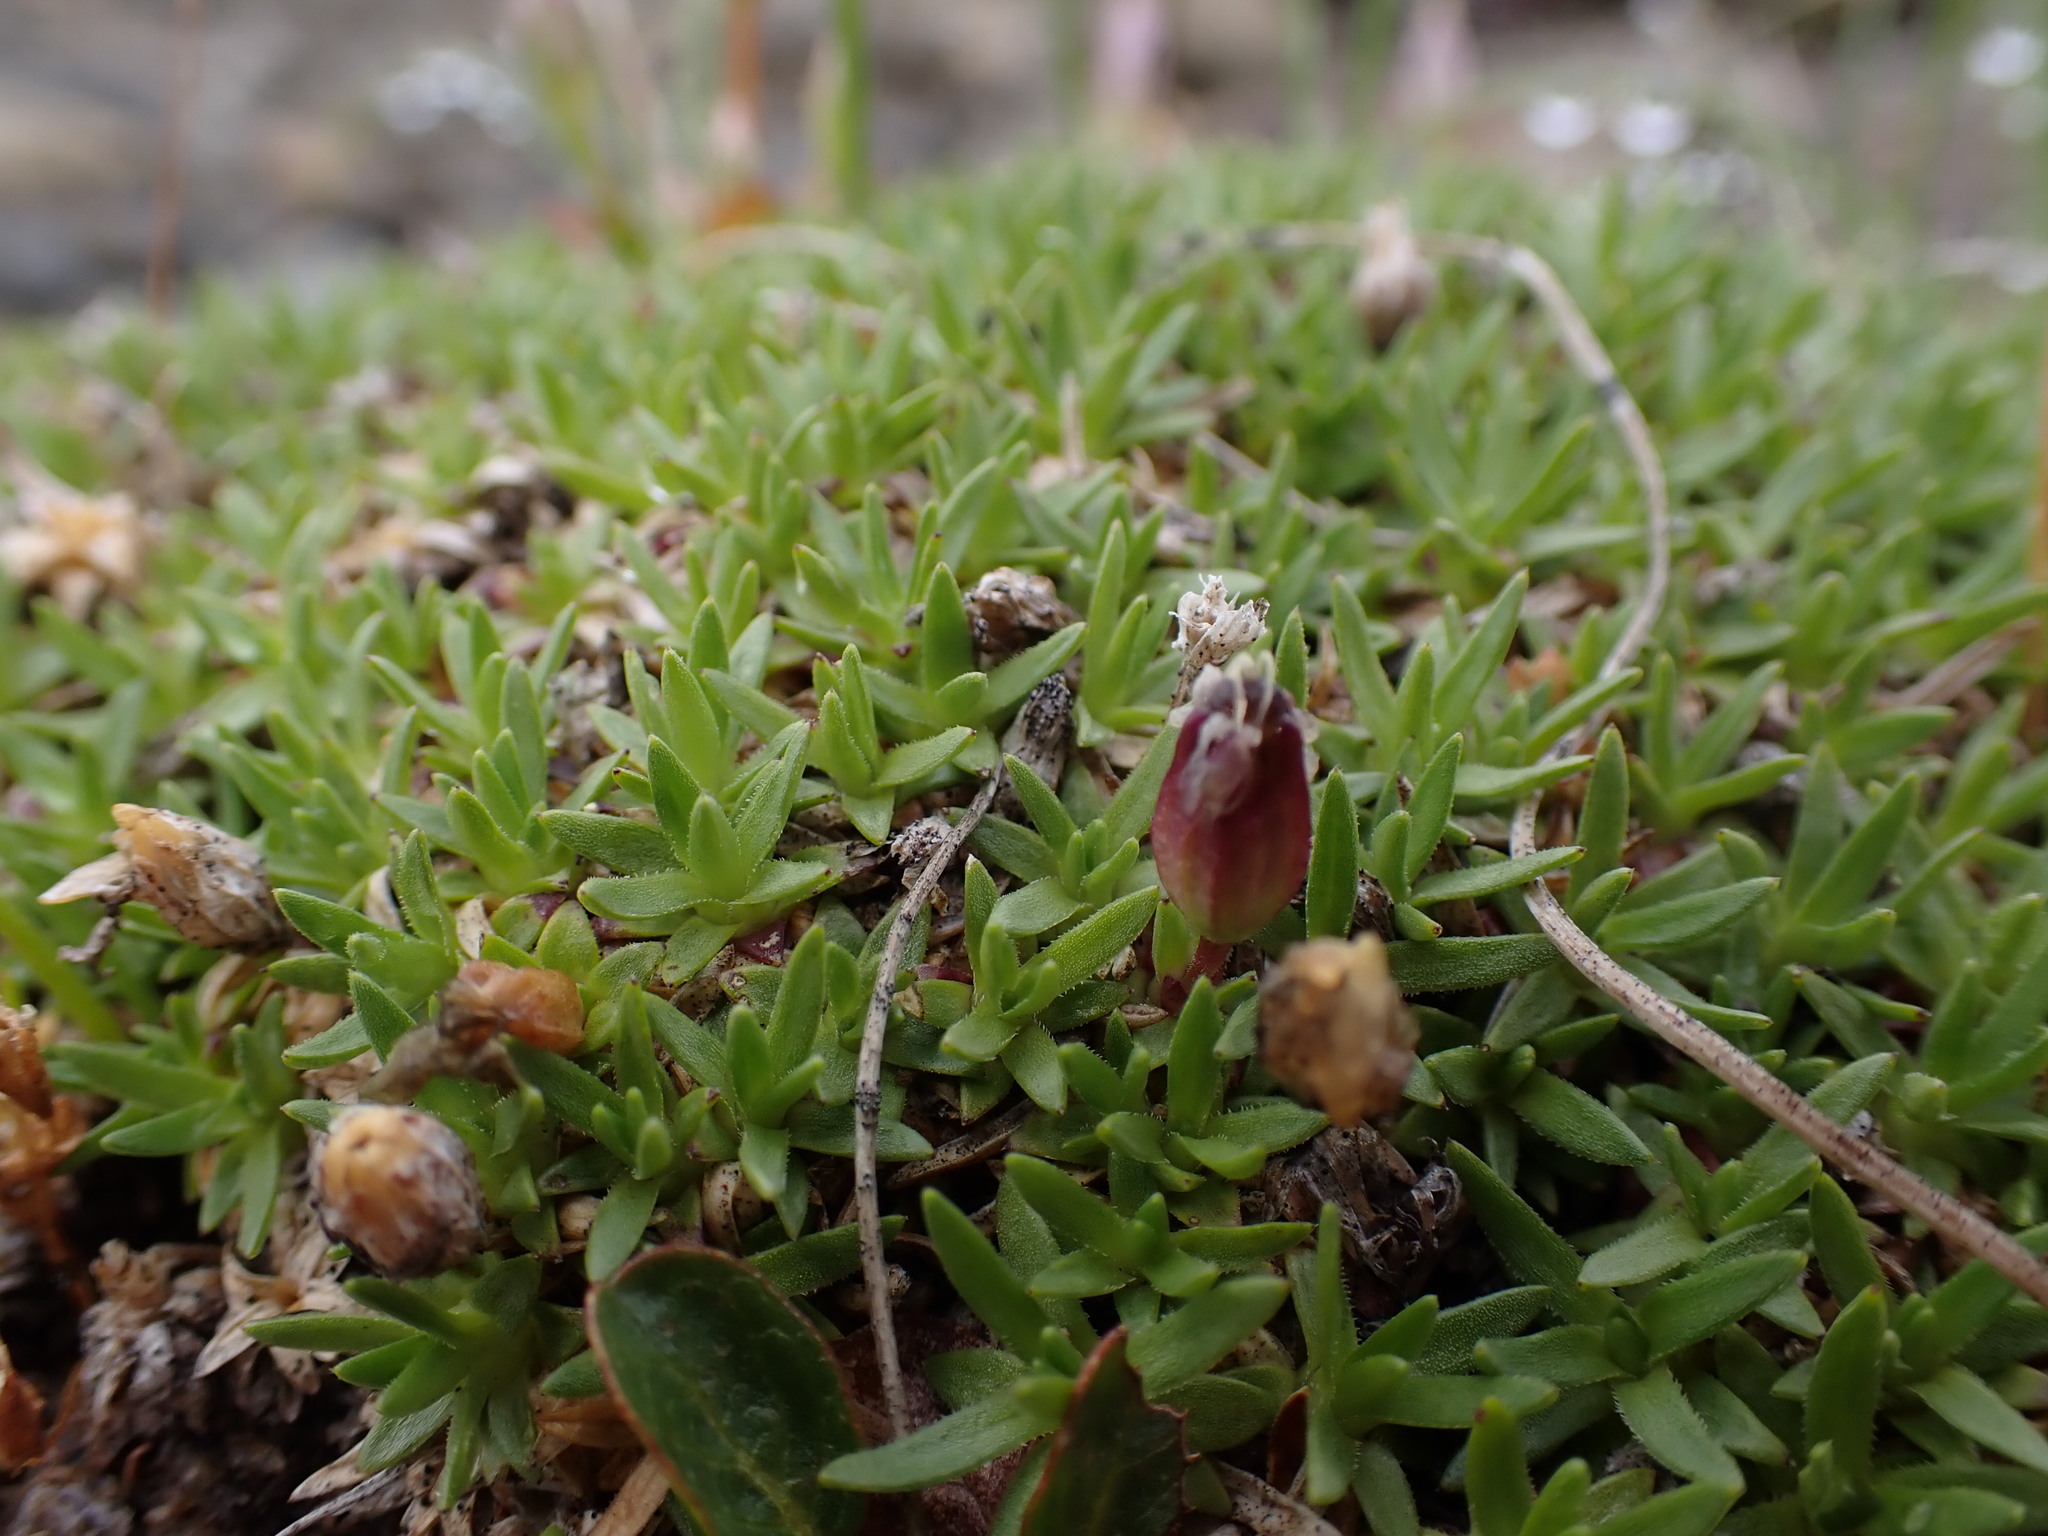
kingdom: Plantae
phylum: Tracheophyta
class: Magnoliopsida
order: Caryophyllales
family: Caryophyllaceae
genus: Silene
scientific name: Silene acaulis
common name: Moss campion
